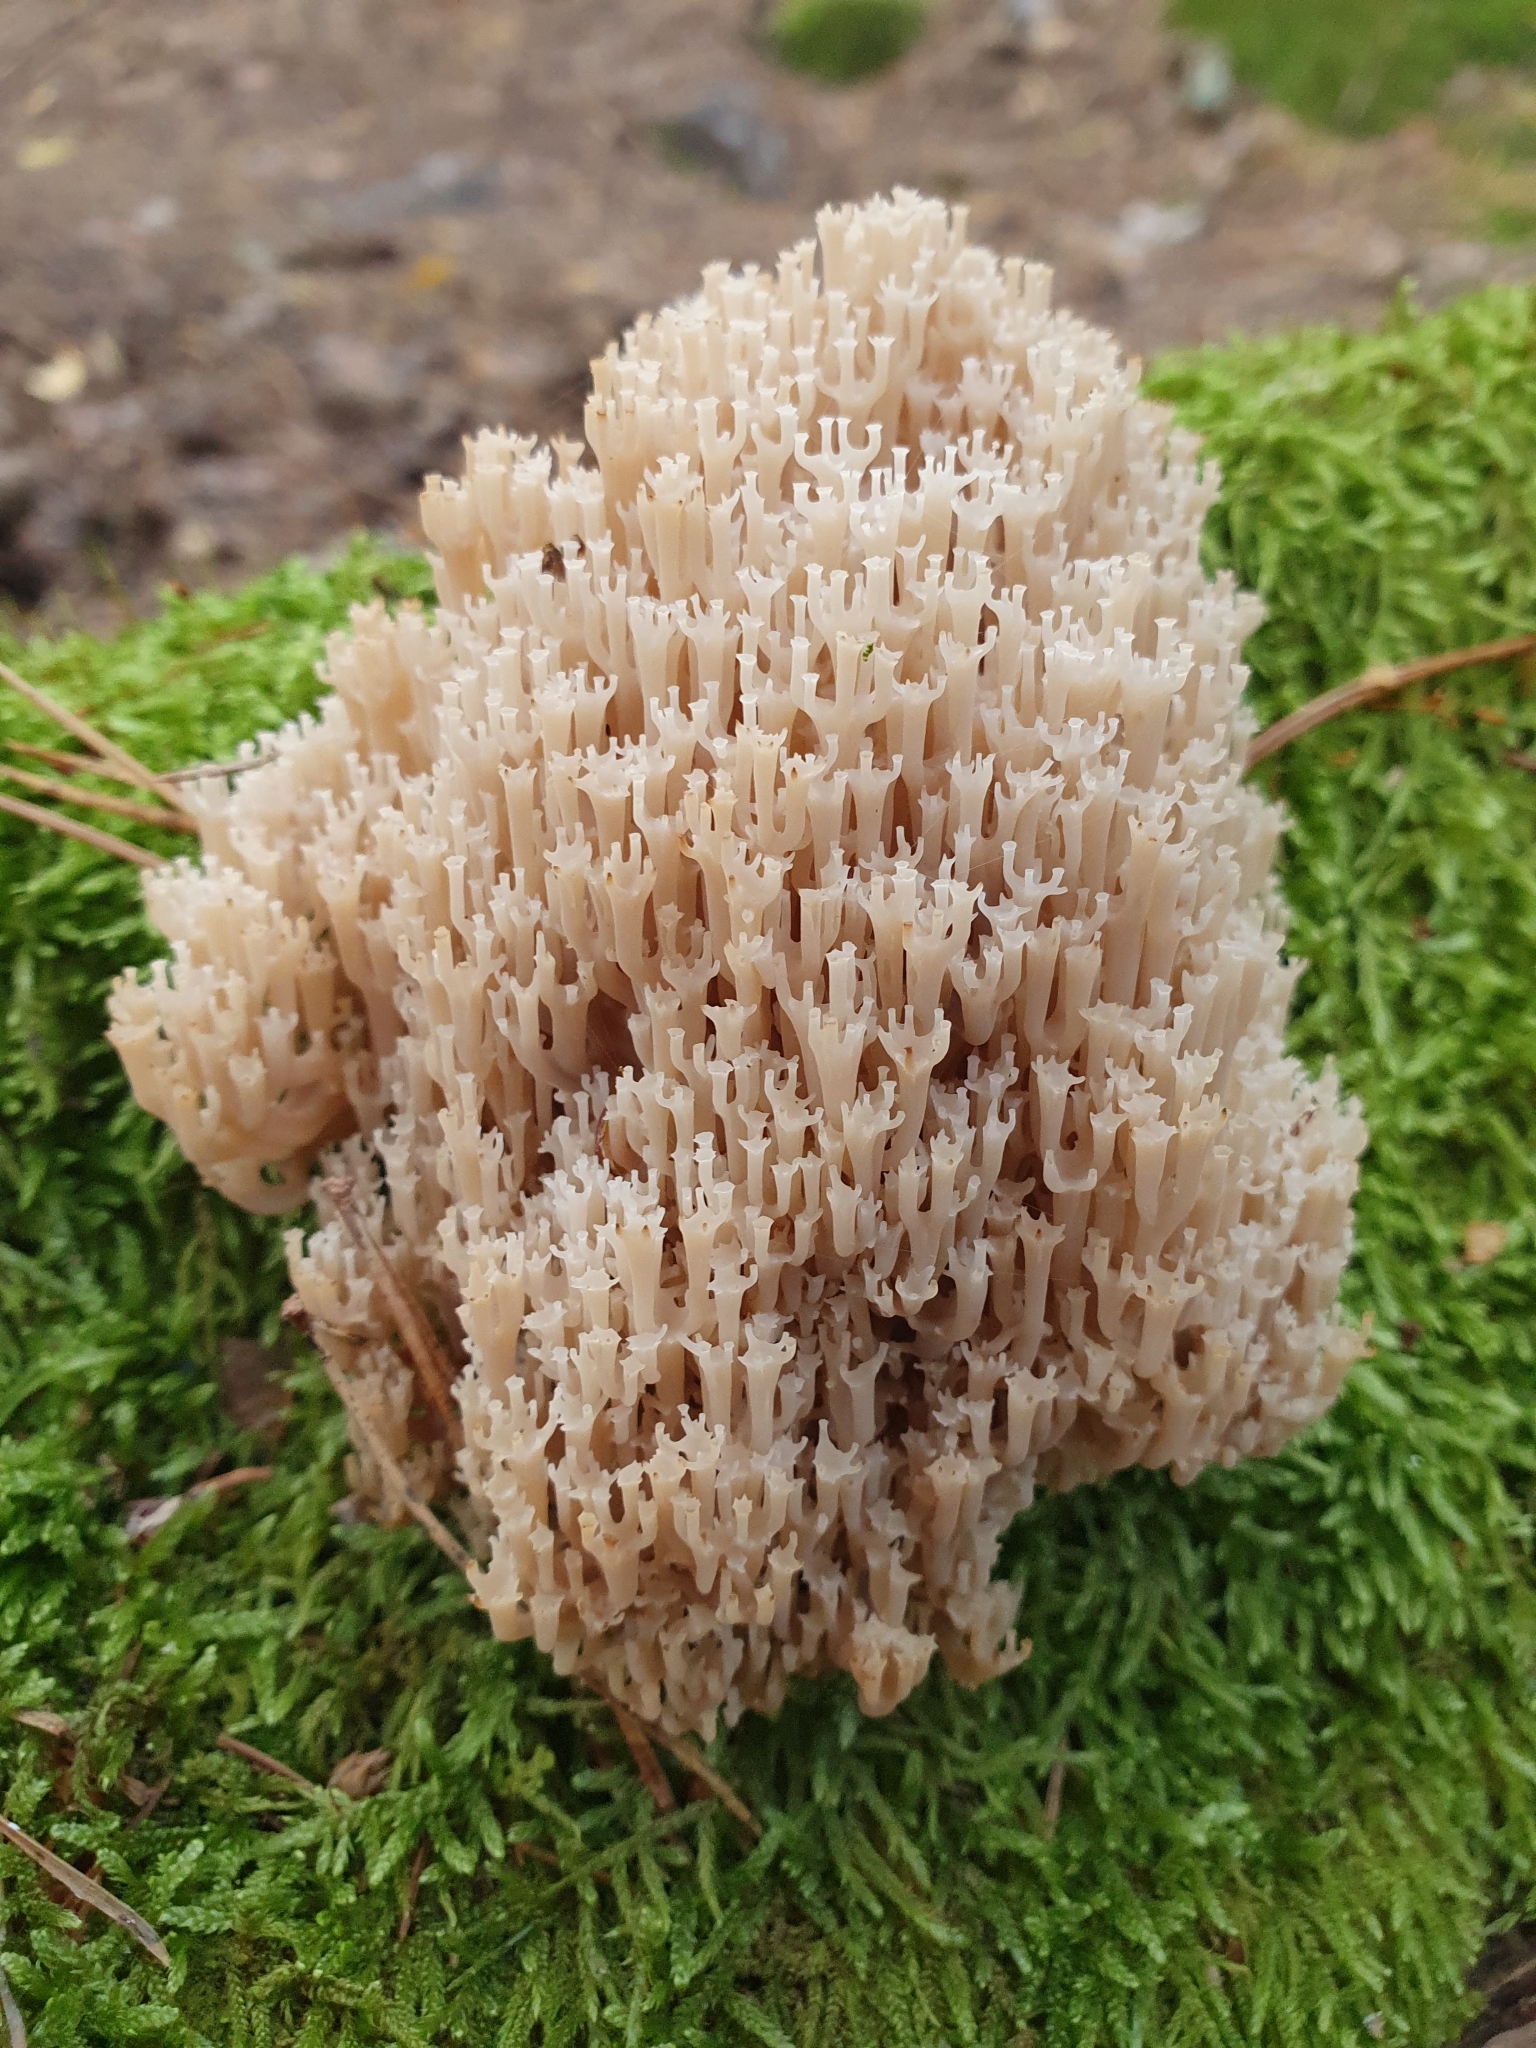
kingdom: Fungi
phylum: Basidiomycota
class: Agaricomycetes
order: Russulales
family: Auriscalpiaceae
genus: Artomyces
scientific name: Artomyces pyxidatus
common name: Crown-tipped coral fungus
